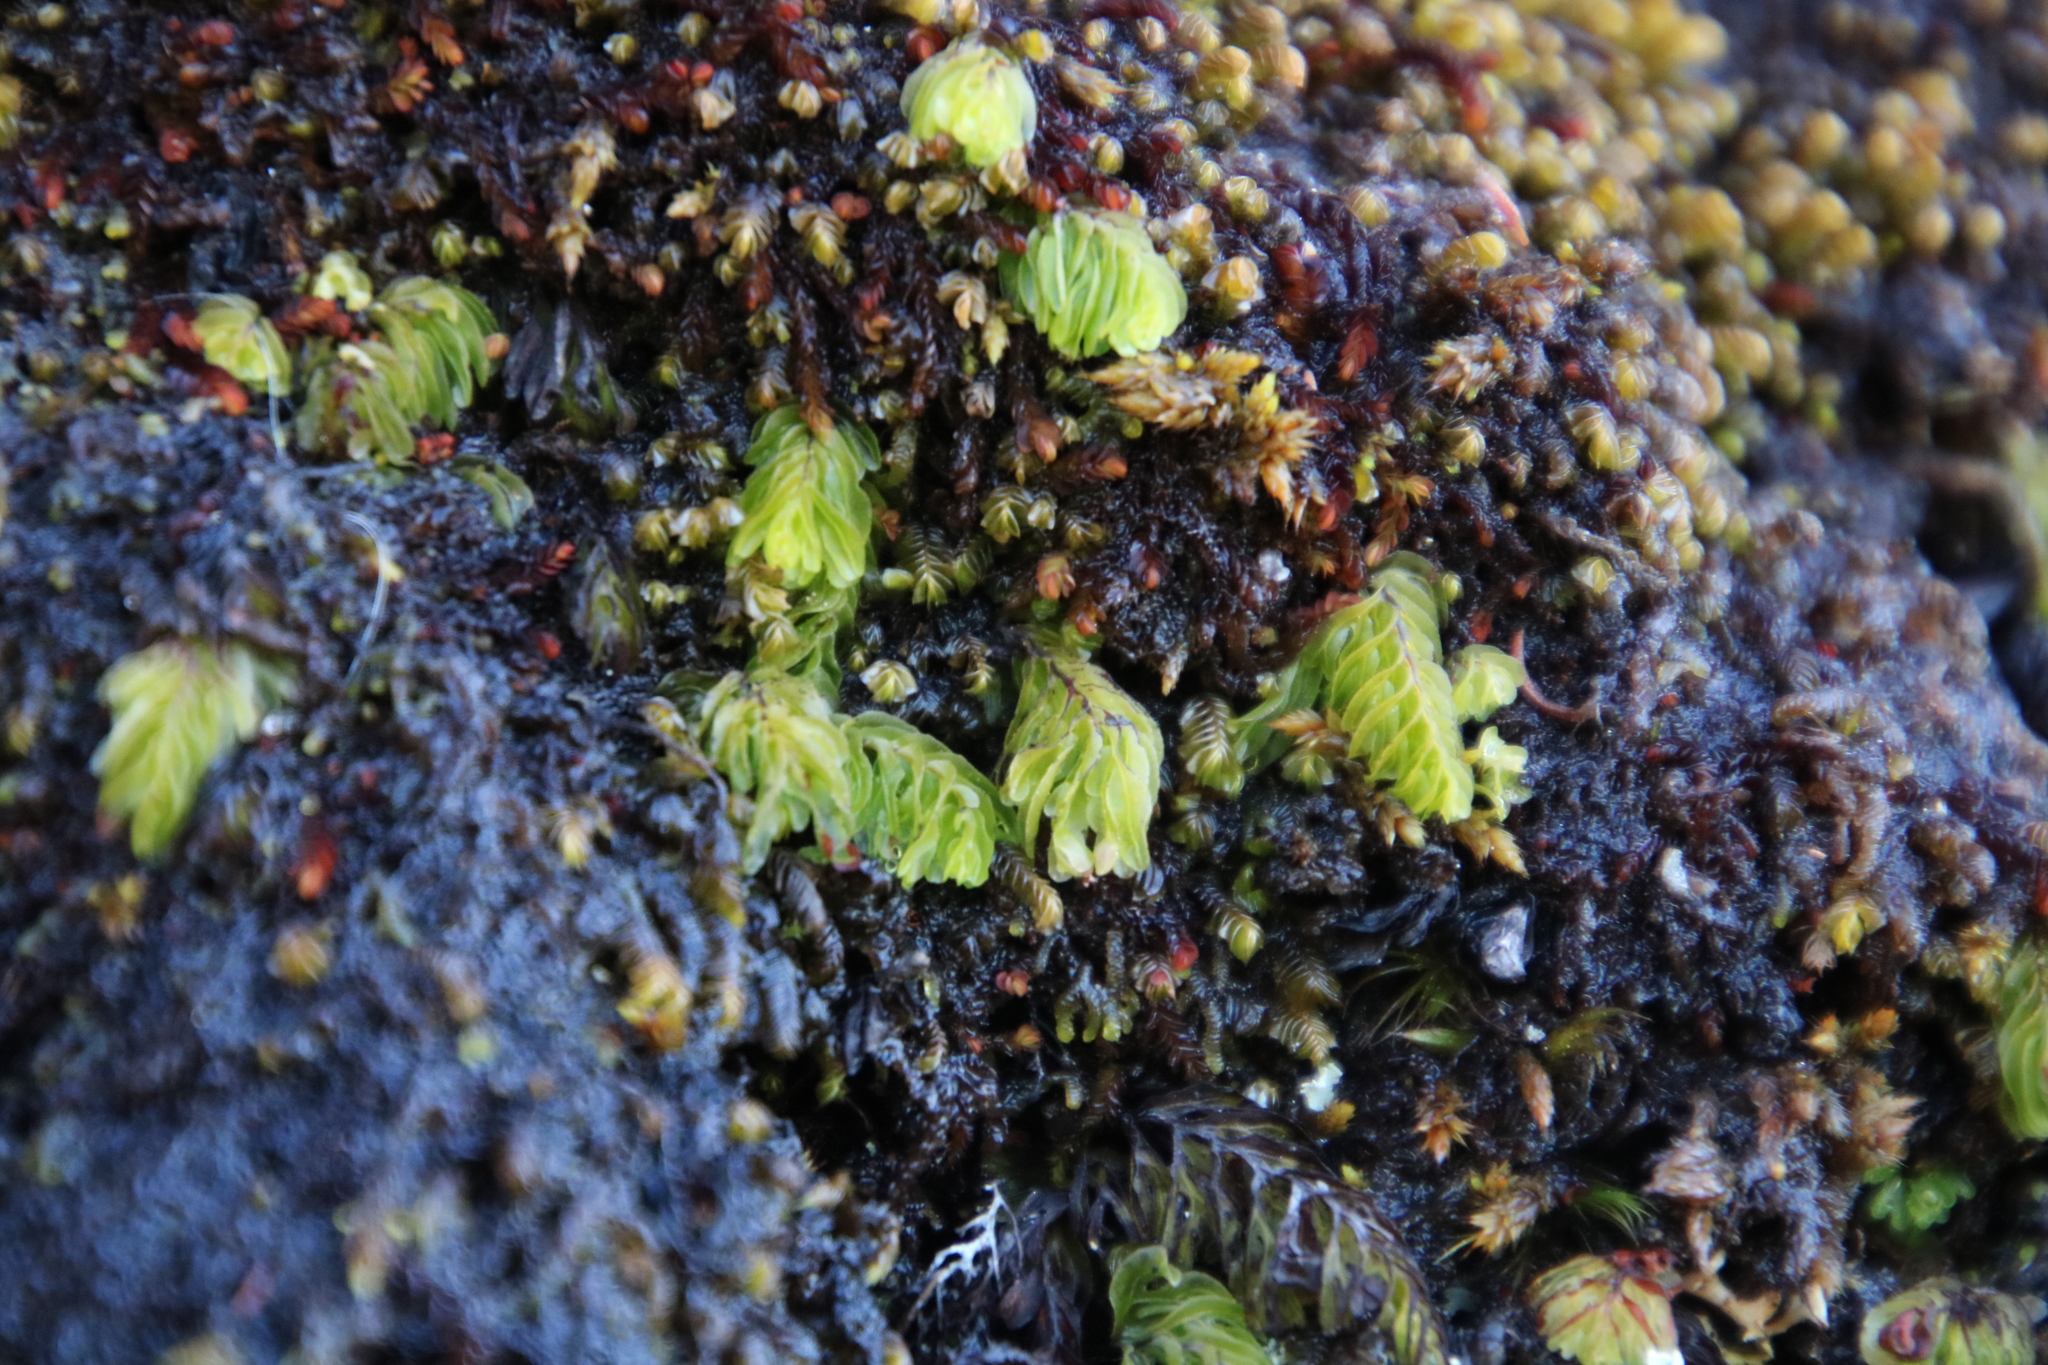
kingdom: Plantae
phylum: Tracheophyta
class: Polypodiopsida
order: Hymenophyllales
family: Hymenophyllaceae
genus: Hymenophyllum
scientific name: Hymenophyllum capense
